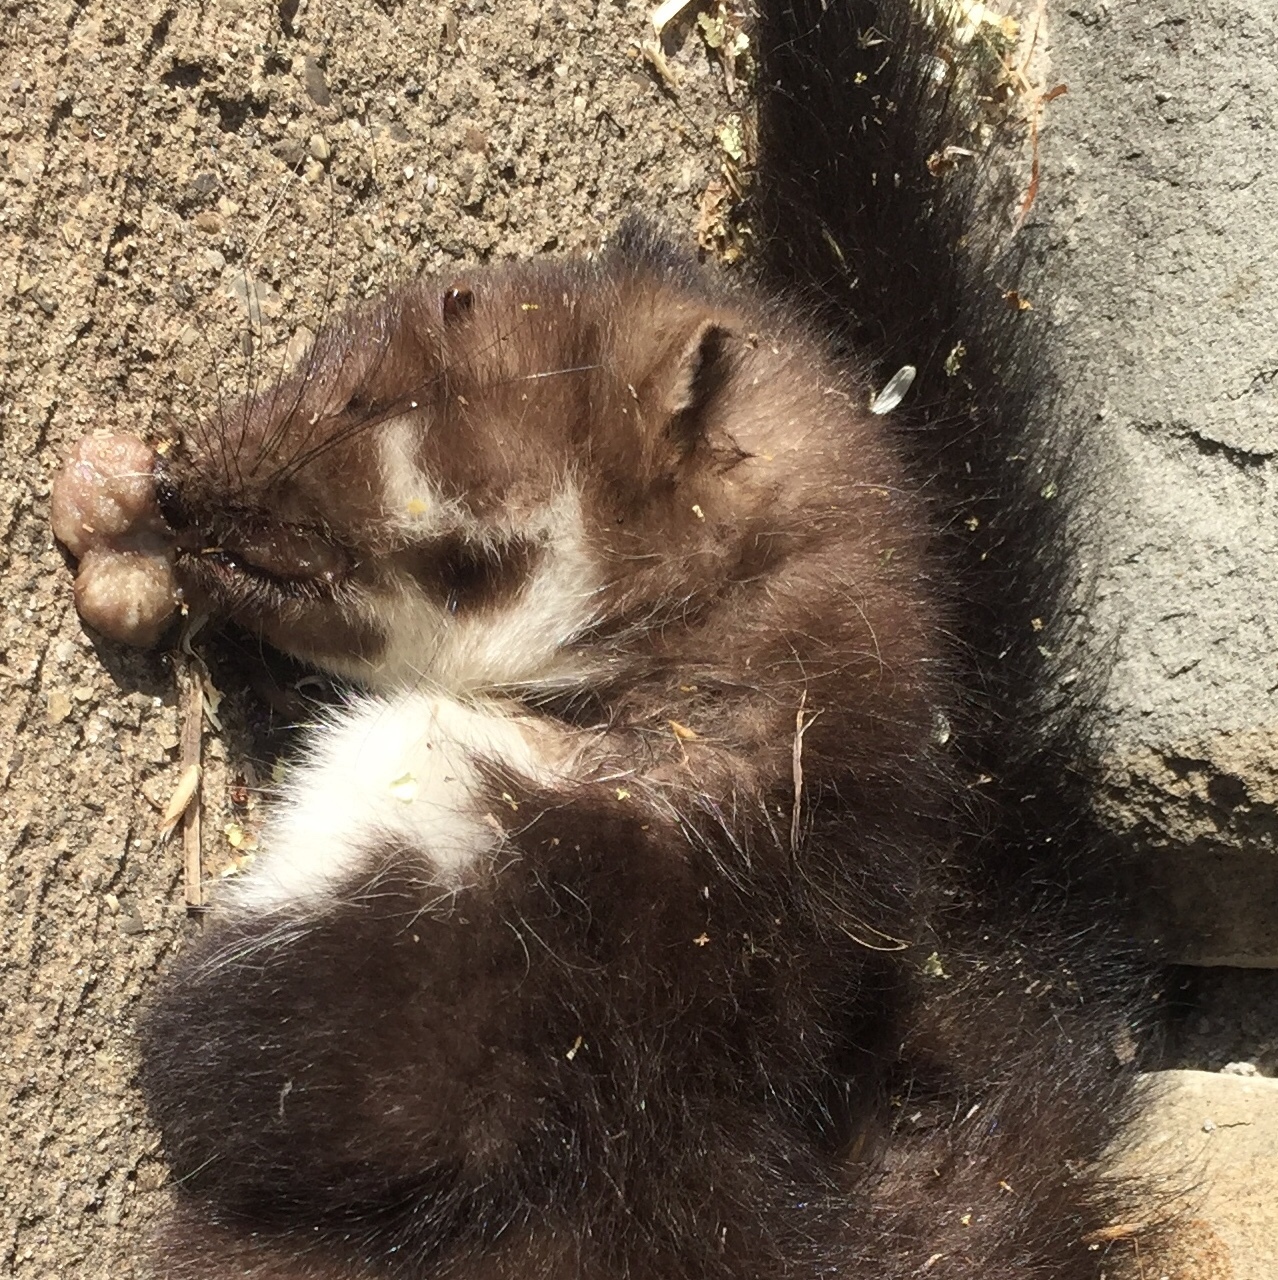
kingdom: Animalia
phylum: Chordata
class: Mammalia
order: Carnivora
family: Mustelidae
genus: Martes
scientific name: Martes foina
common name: Beech marten
